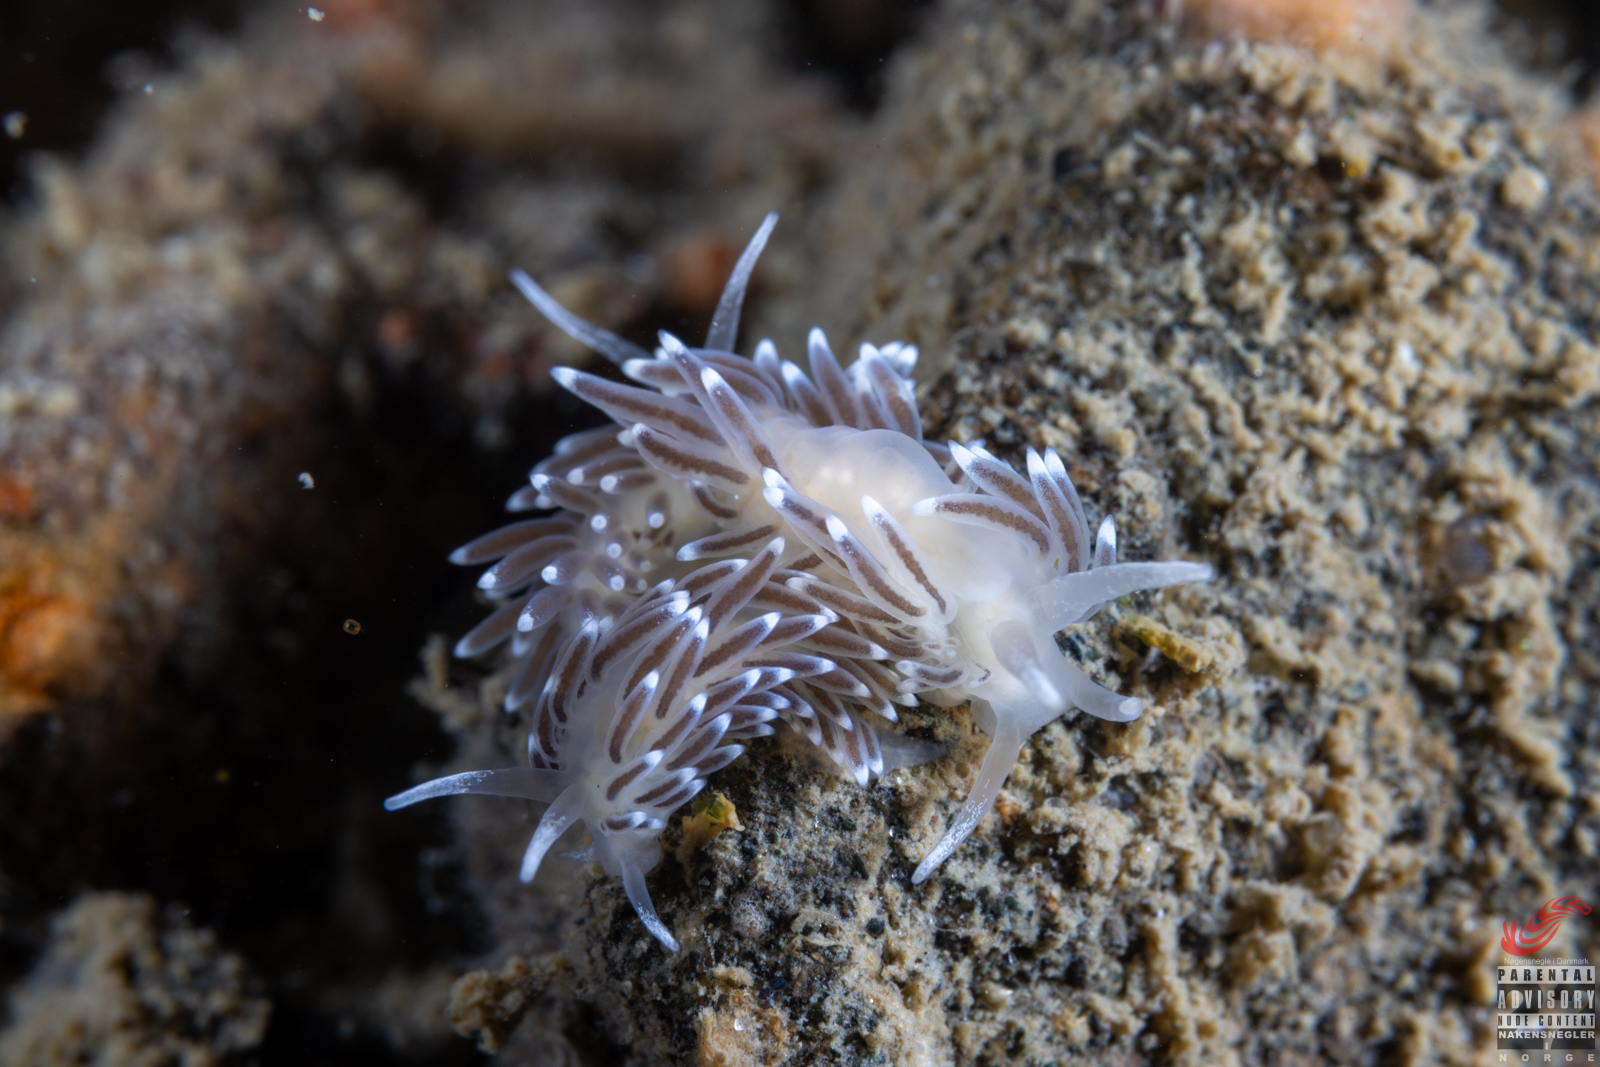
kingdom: Animalia
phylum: Mollusca
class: Gastropoda
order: Nudibranchia
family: Cuthonellidae
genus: Cuthonella
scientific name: Cuthonella concinna
